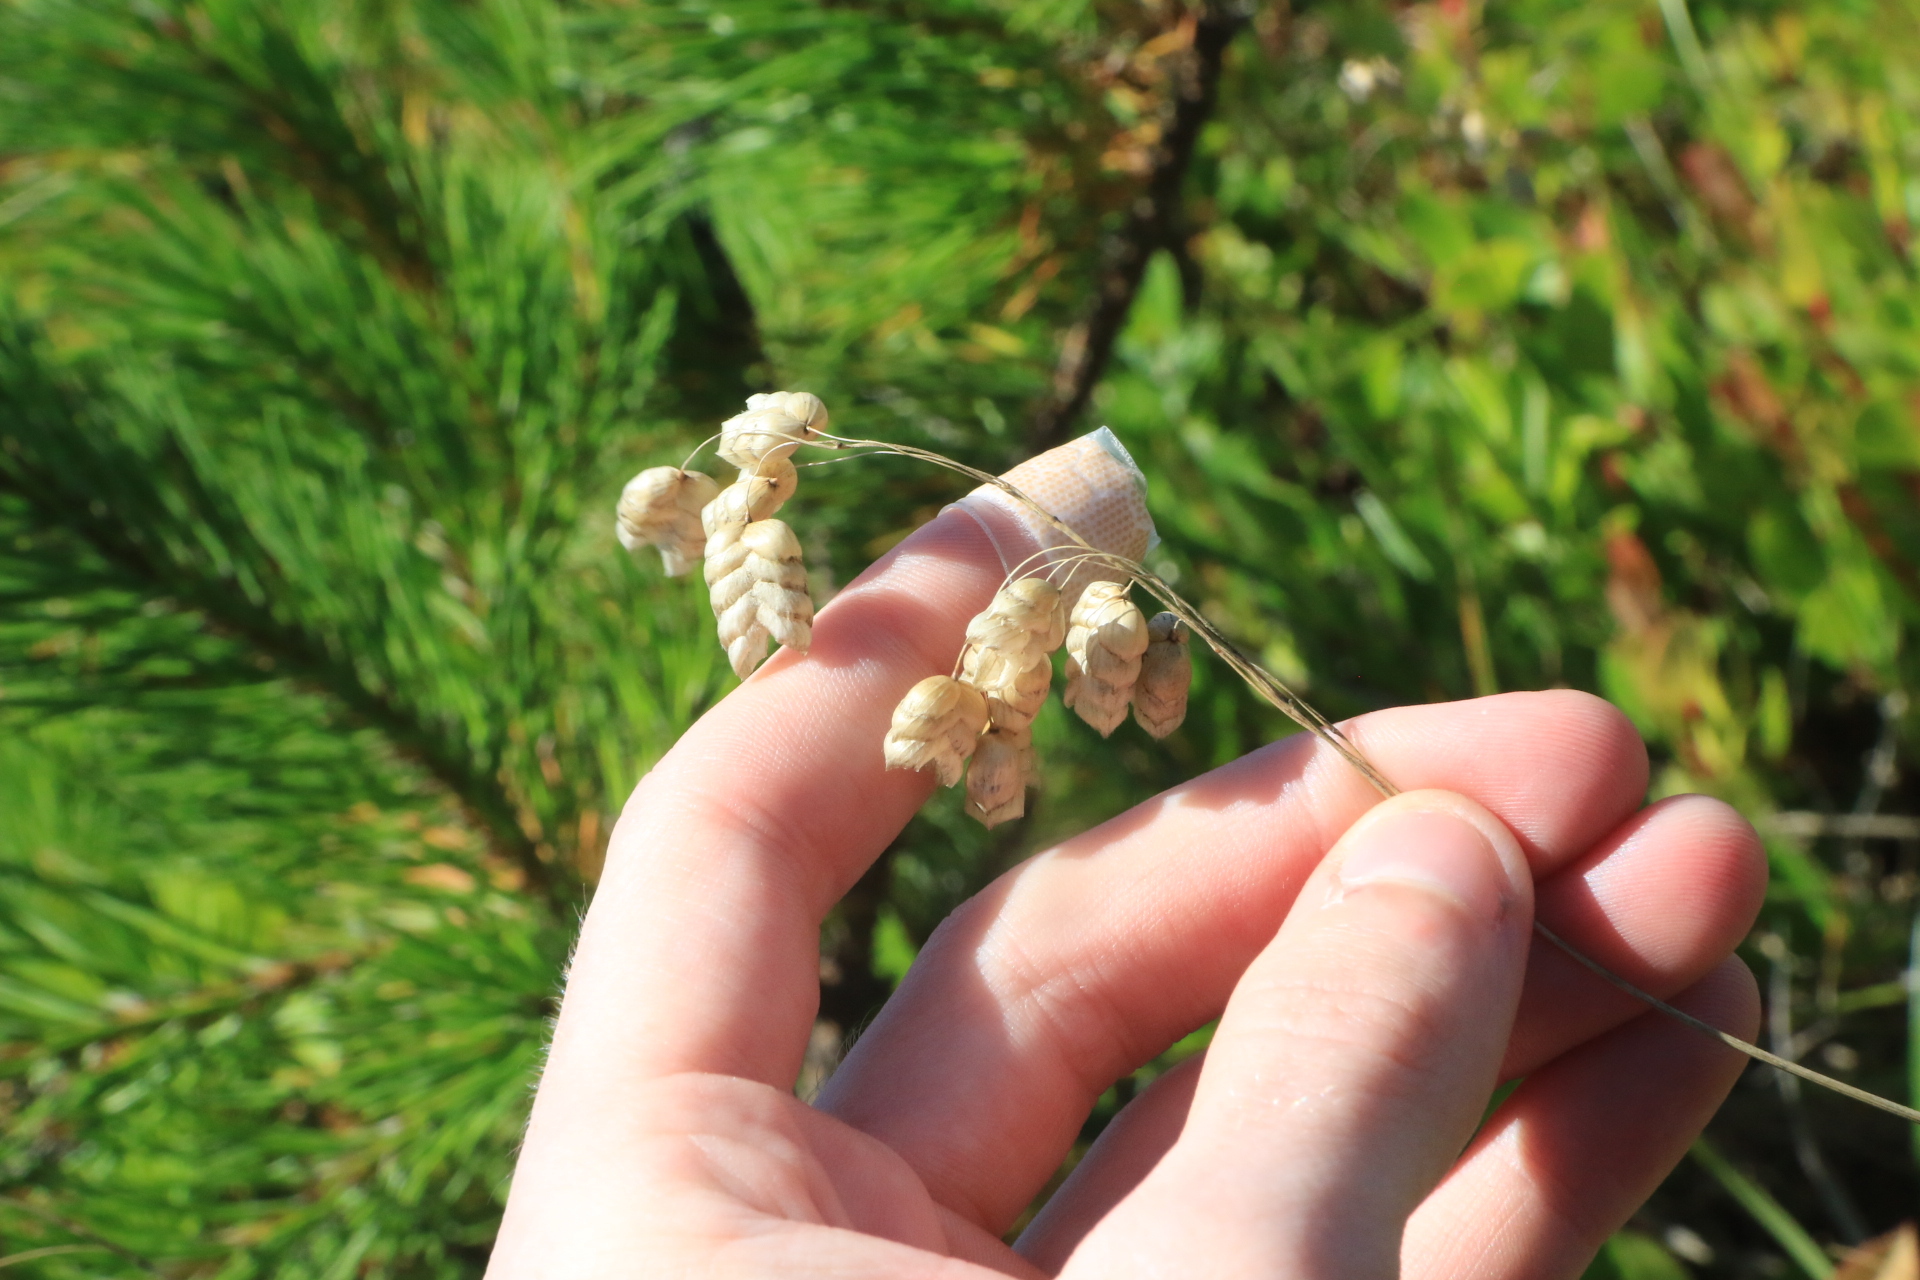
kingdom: Plantae
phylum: Tracheophyta
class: Liliopsida
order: Poales
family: Poaceae
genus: Briza
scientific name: Briza maxima
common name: Big quakinggrass
